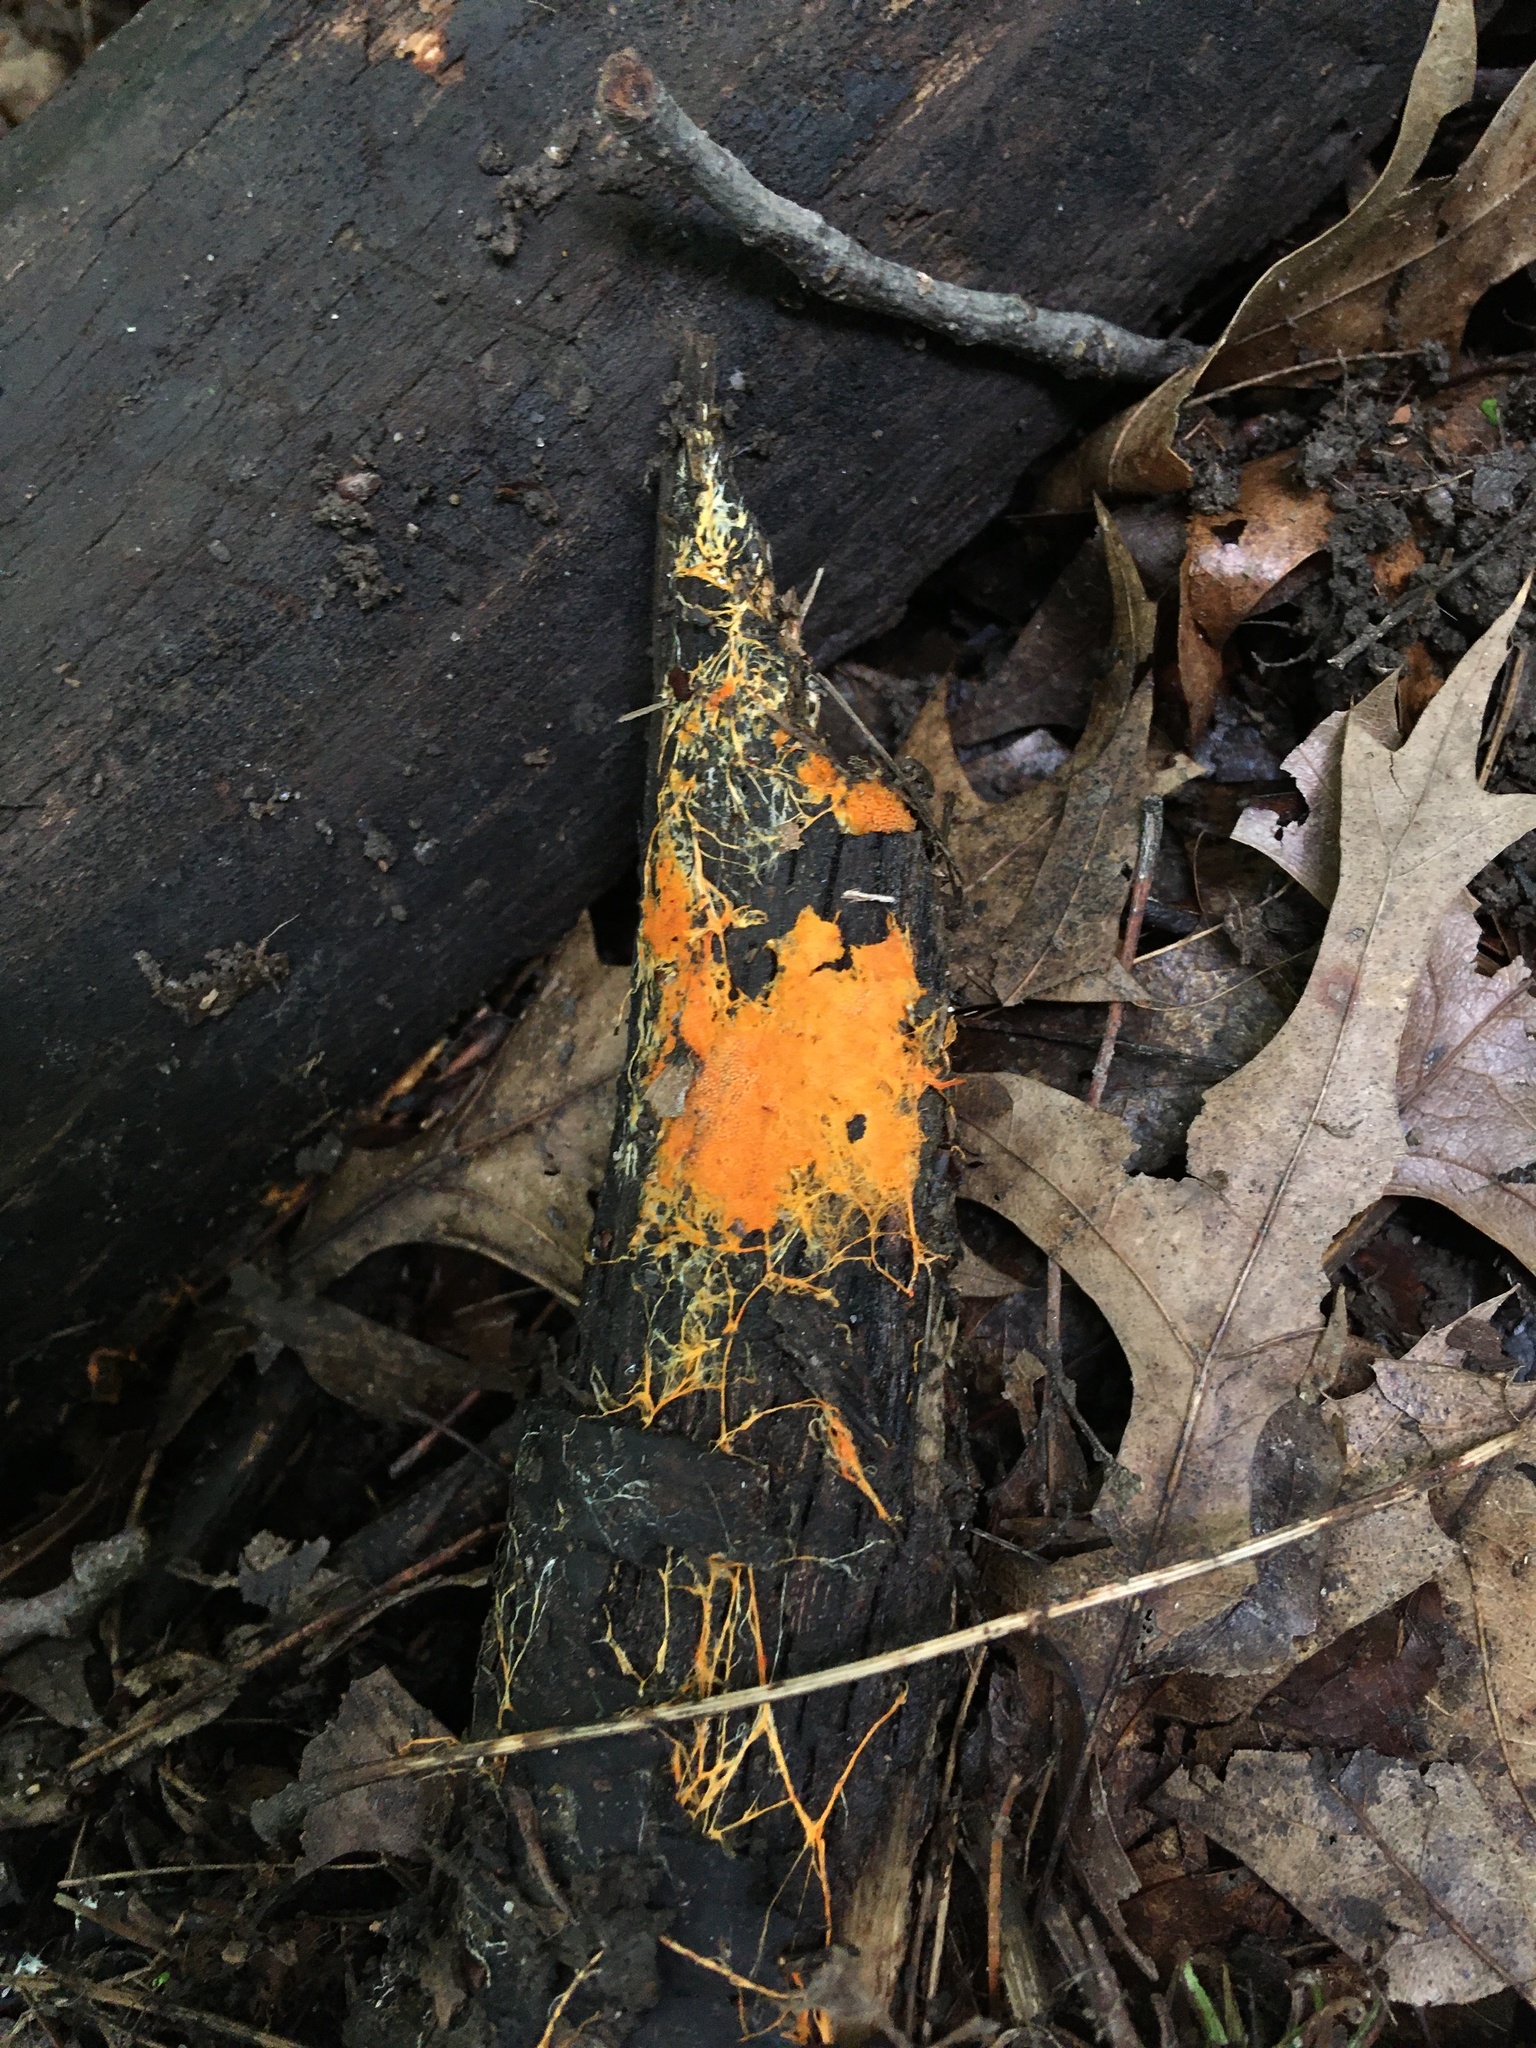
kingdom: Fungi
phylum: Basidiomycota
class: Agaricomycetes
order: Polyporales
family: Meruliaceae
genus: Hydnophlebia
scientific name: Hydnophlebia chrysorhiza
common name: Spreading yellow tooth
